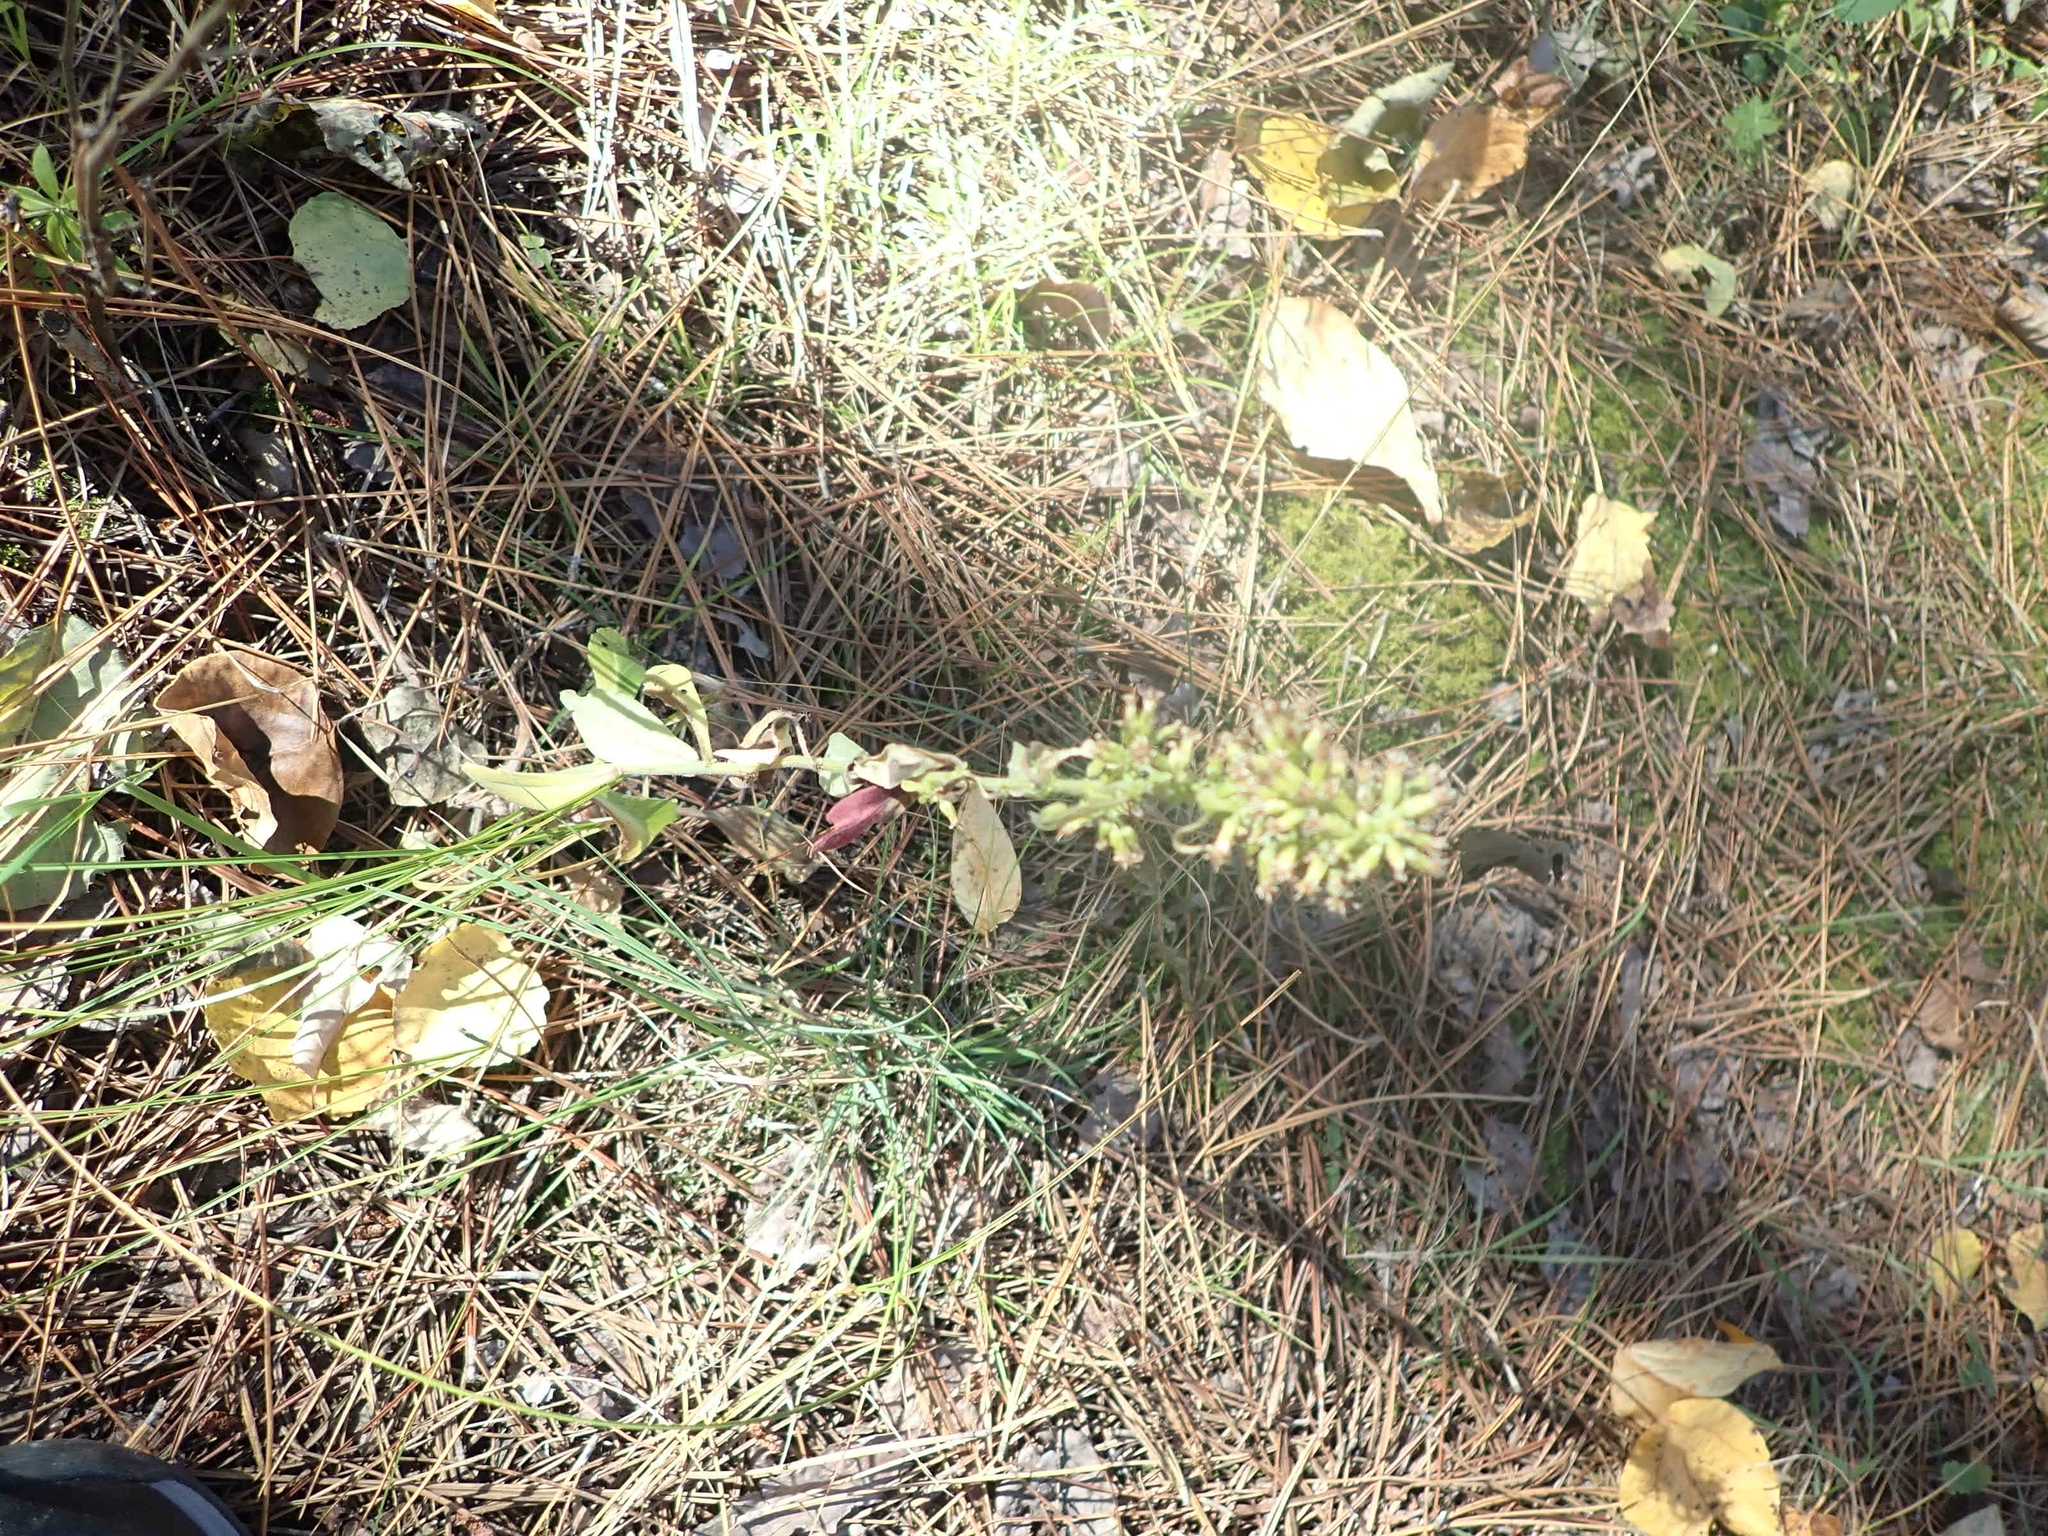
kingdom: Plantae
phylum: Tracheophyta
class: Magnoliopsida
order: Asterales
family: Asteraceae
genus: Solidago
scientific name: Solidago hispida
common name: Hairy goldenrod
